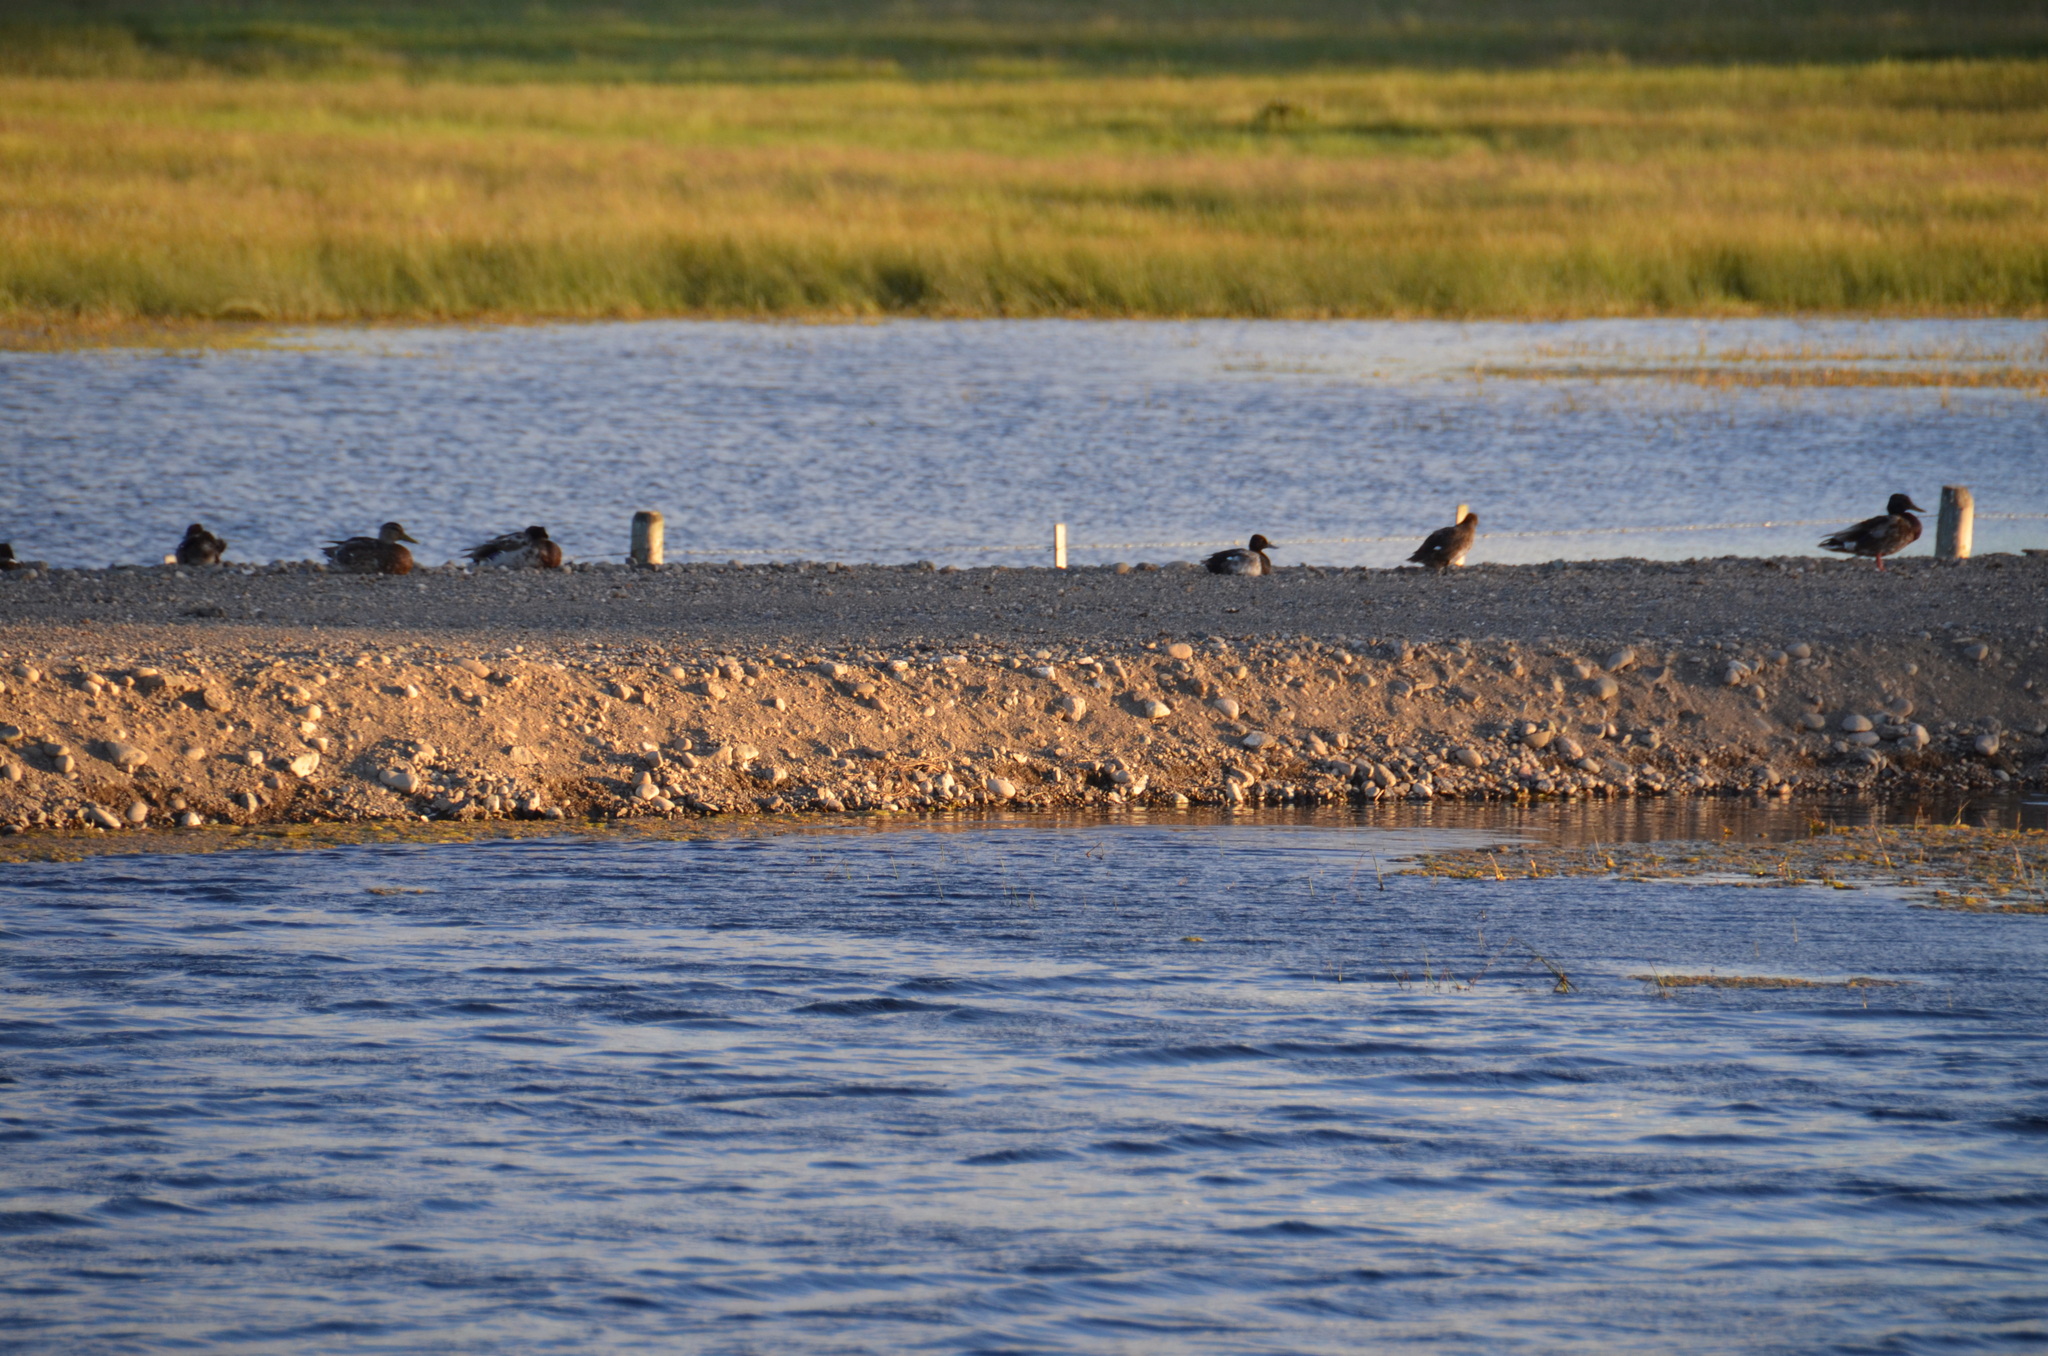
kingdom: Animalia
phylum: Chordata
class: Aves
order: Anseriformes
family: Anatidae
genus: Anas
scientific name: Anas platyrhynchos
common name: Mallard
